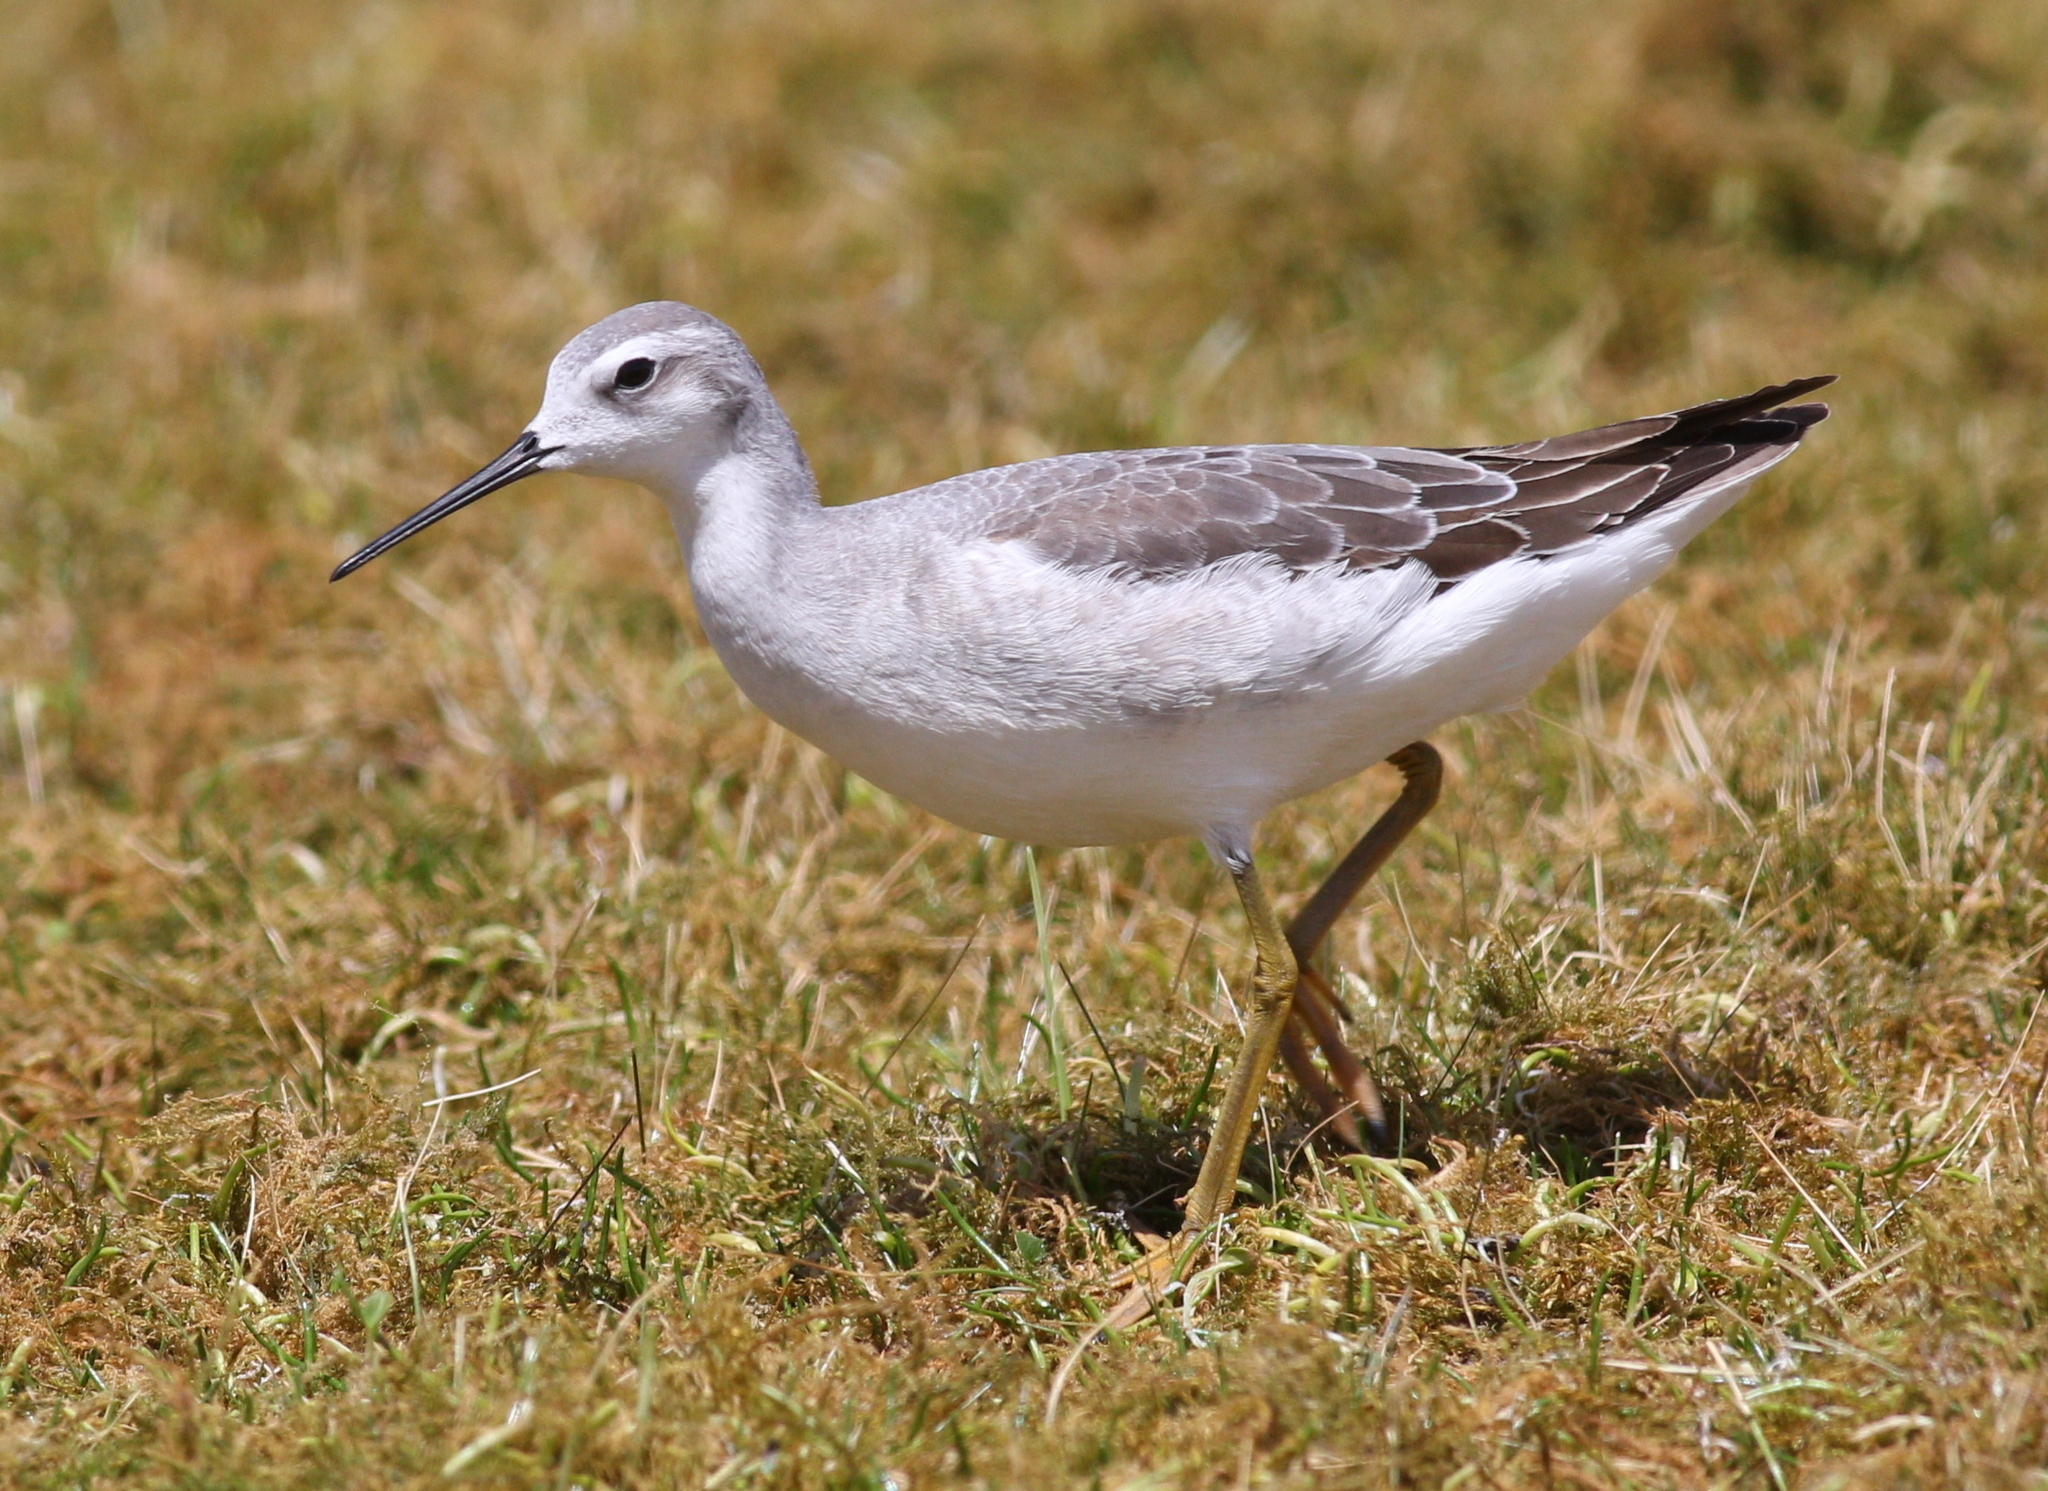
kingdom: Animalia
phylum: Chordata
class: Aves
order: Charadriiformes
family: Scolopacidae
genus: Phalaropus
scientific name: Phalaropus tricolor
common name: Wilson's phalarope
